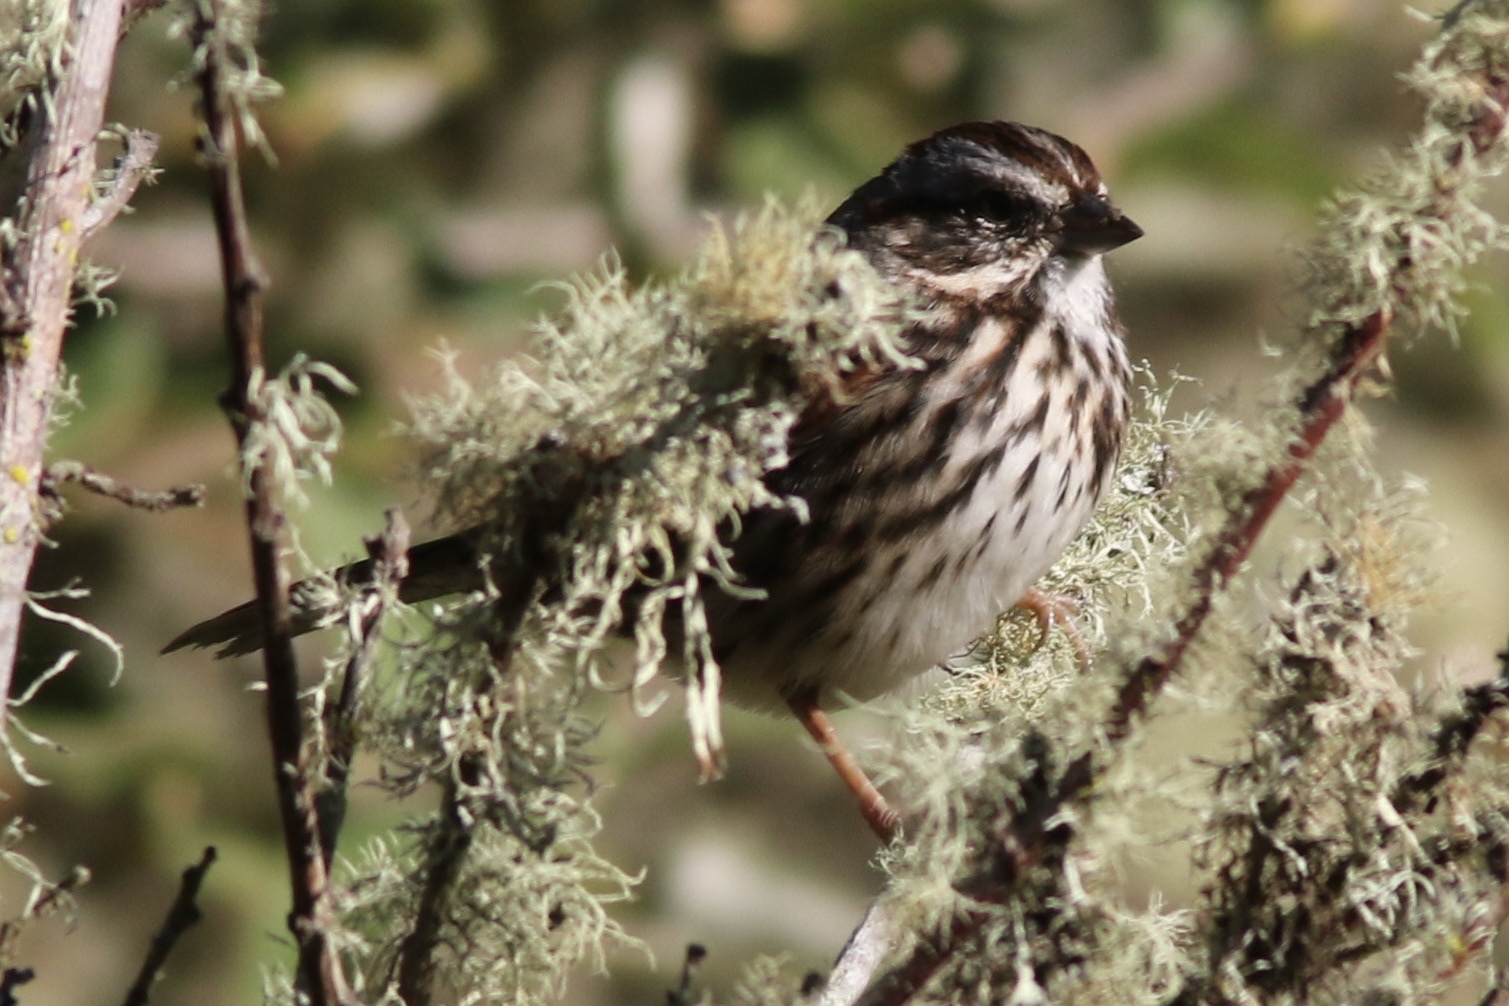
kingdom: Animalia
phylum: Chordata
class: Aves
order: Passeriformes
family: Passerellidae
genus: Melospiza
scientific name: Melospiza melodia
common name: Song sparrow
